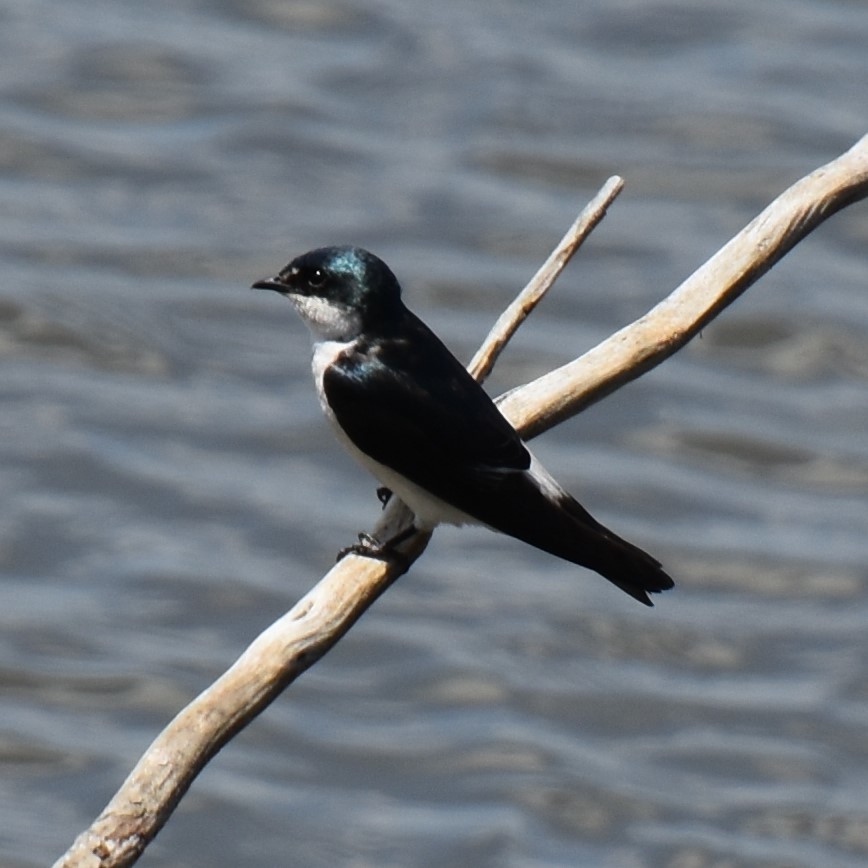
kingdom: Animalia
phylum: Chordata
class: Aves
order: Passeriformes
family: Hirundinidae
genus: Tachycineta
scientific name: Tachycineta albilinea
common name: Mangrove swallow
